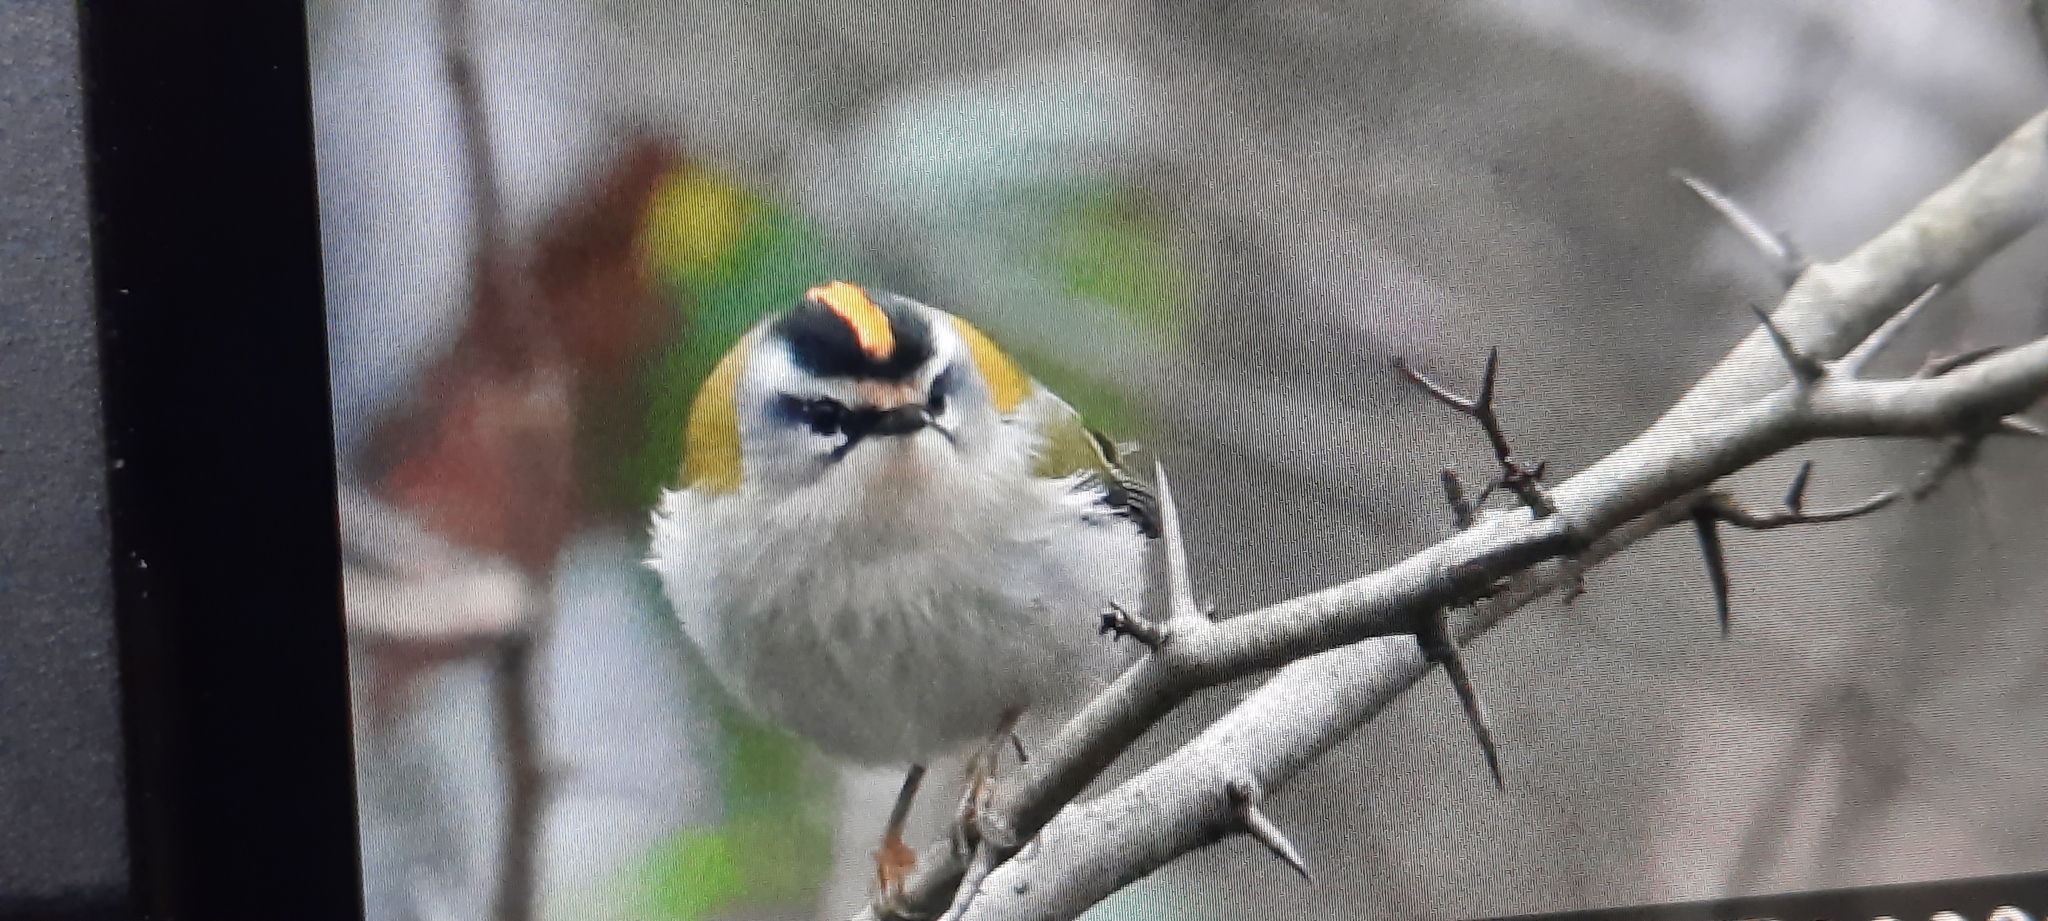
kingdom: Animalia
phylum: Chordata
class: Aves
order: Passeriformes
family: Regulidae
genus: Regulus
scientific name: Regulus ignicapilla
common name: Firecrest
